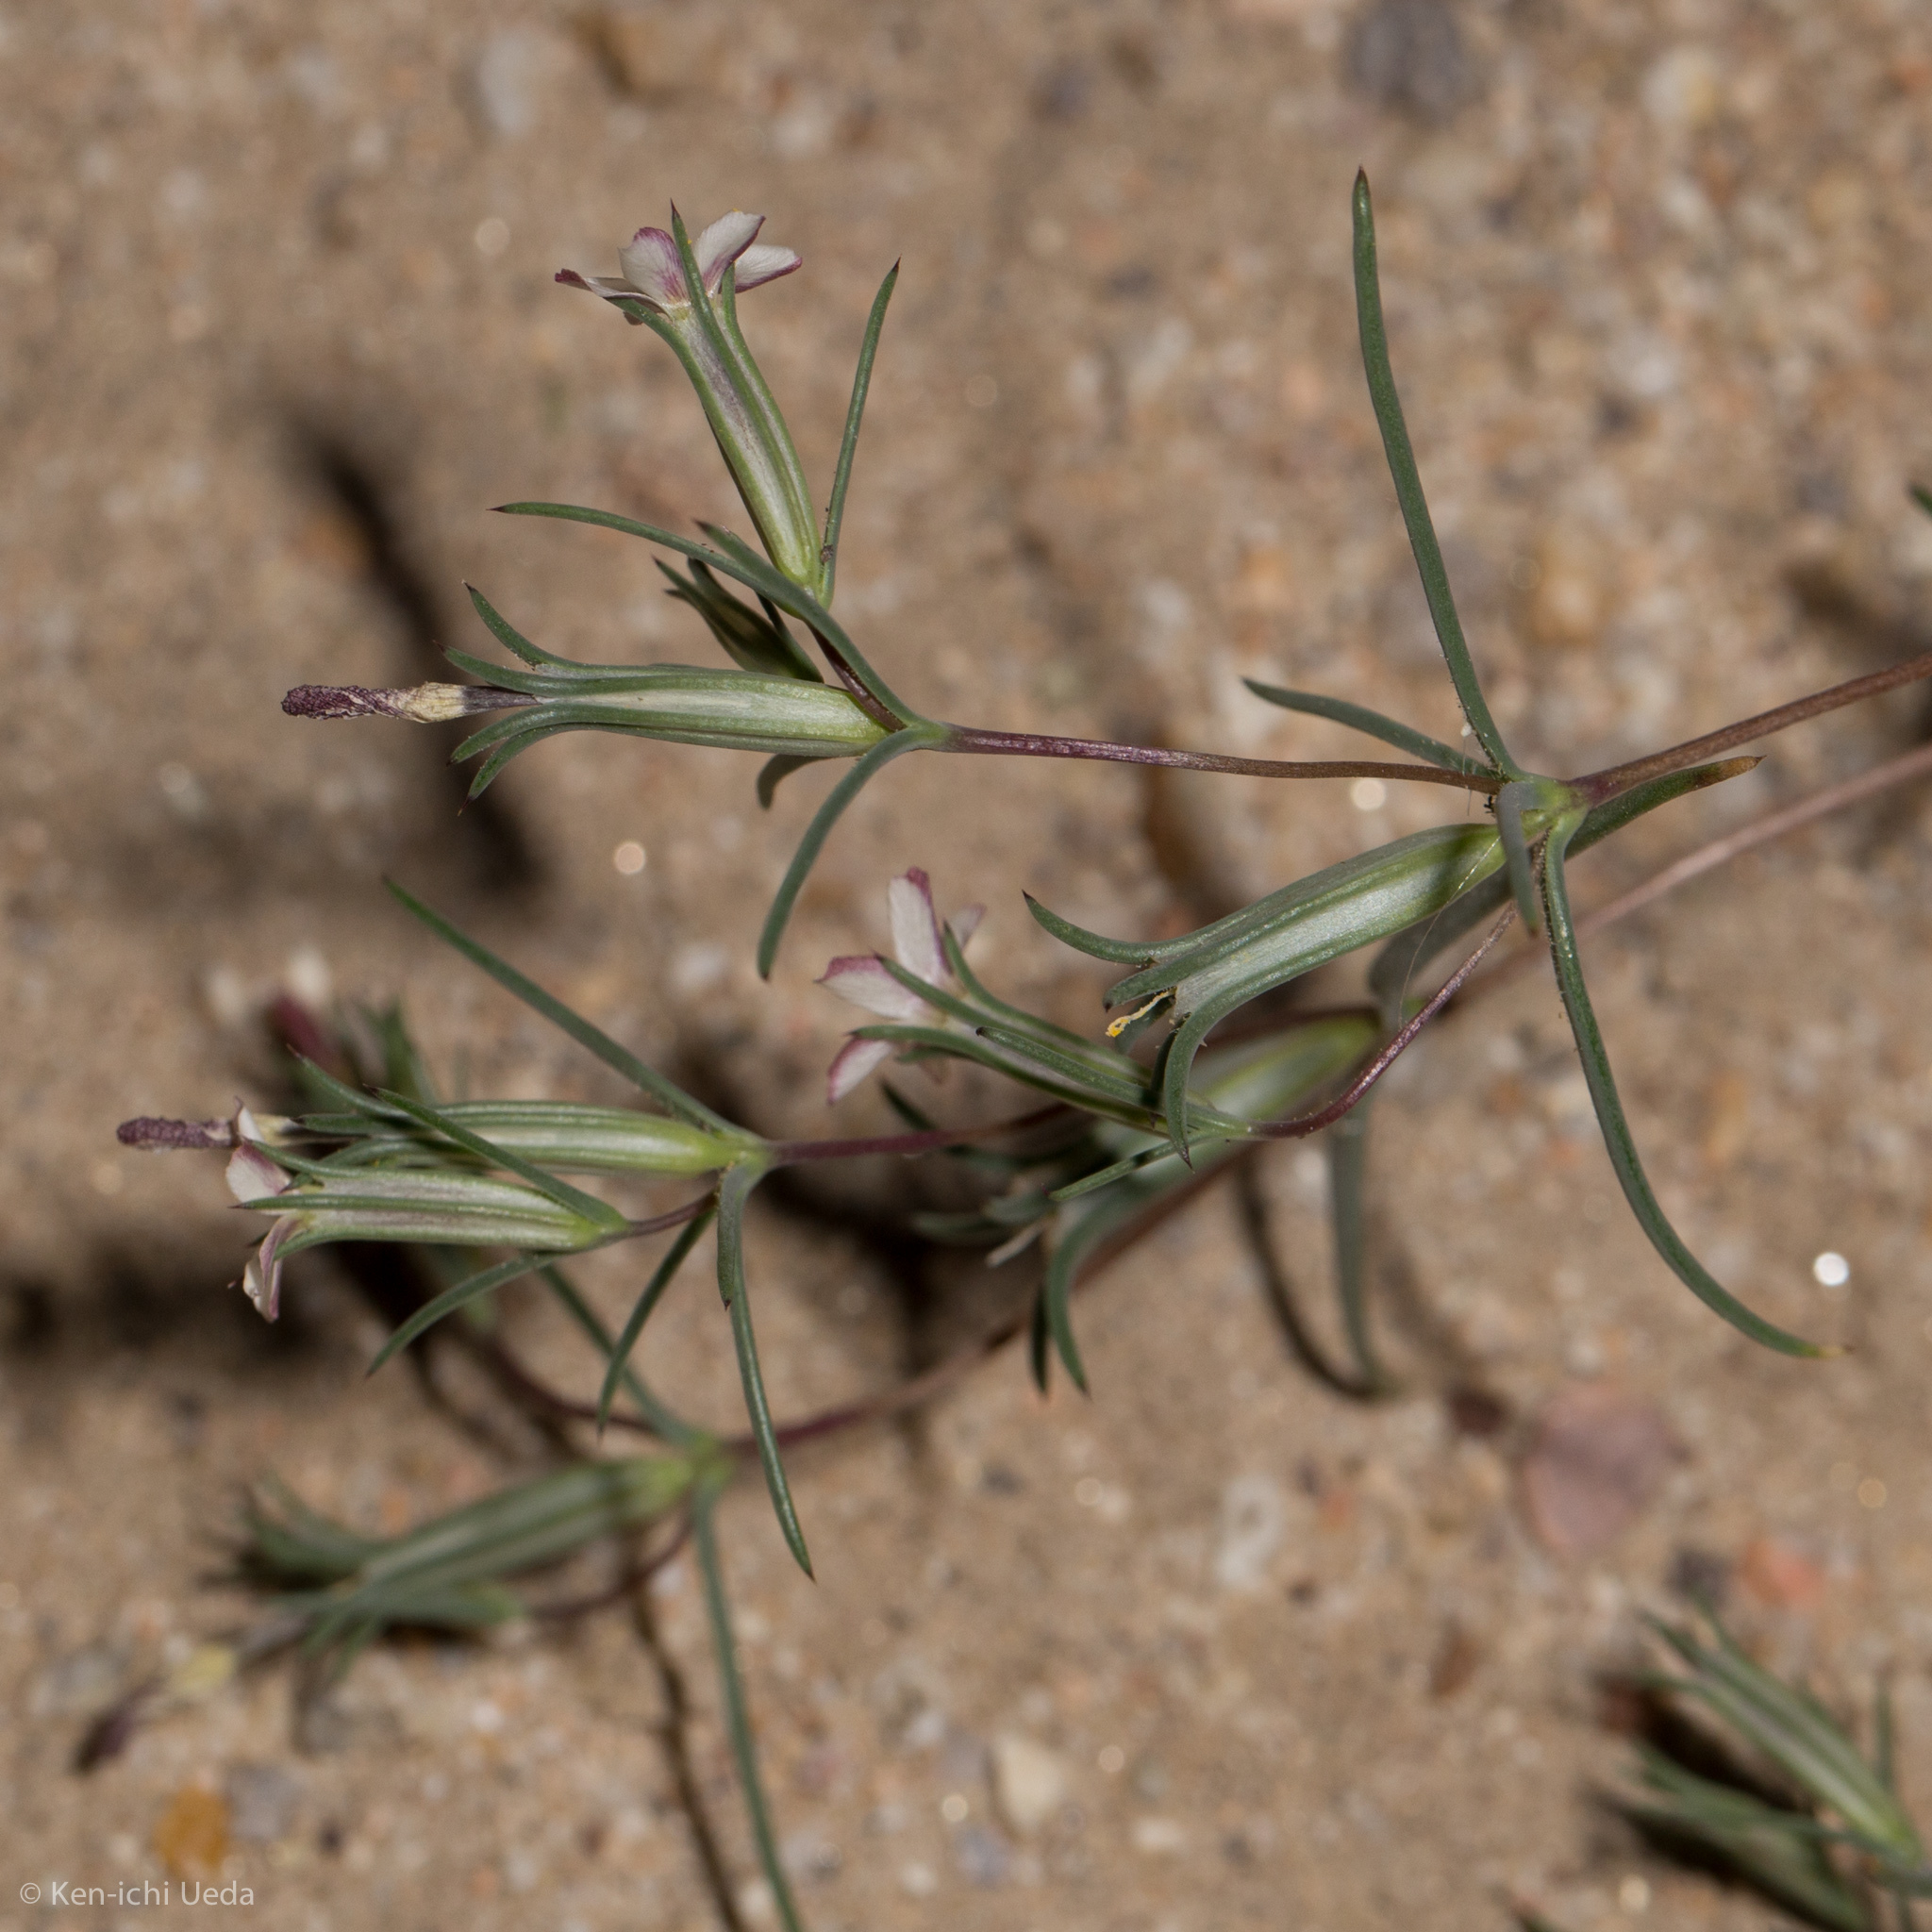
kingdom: Plantae
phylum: Tracheophyta
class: Magnoliopsida
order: Ericales
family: Polemoniaceae
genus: Linanthus
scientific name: Linanthus dichotomus
